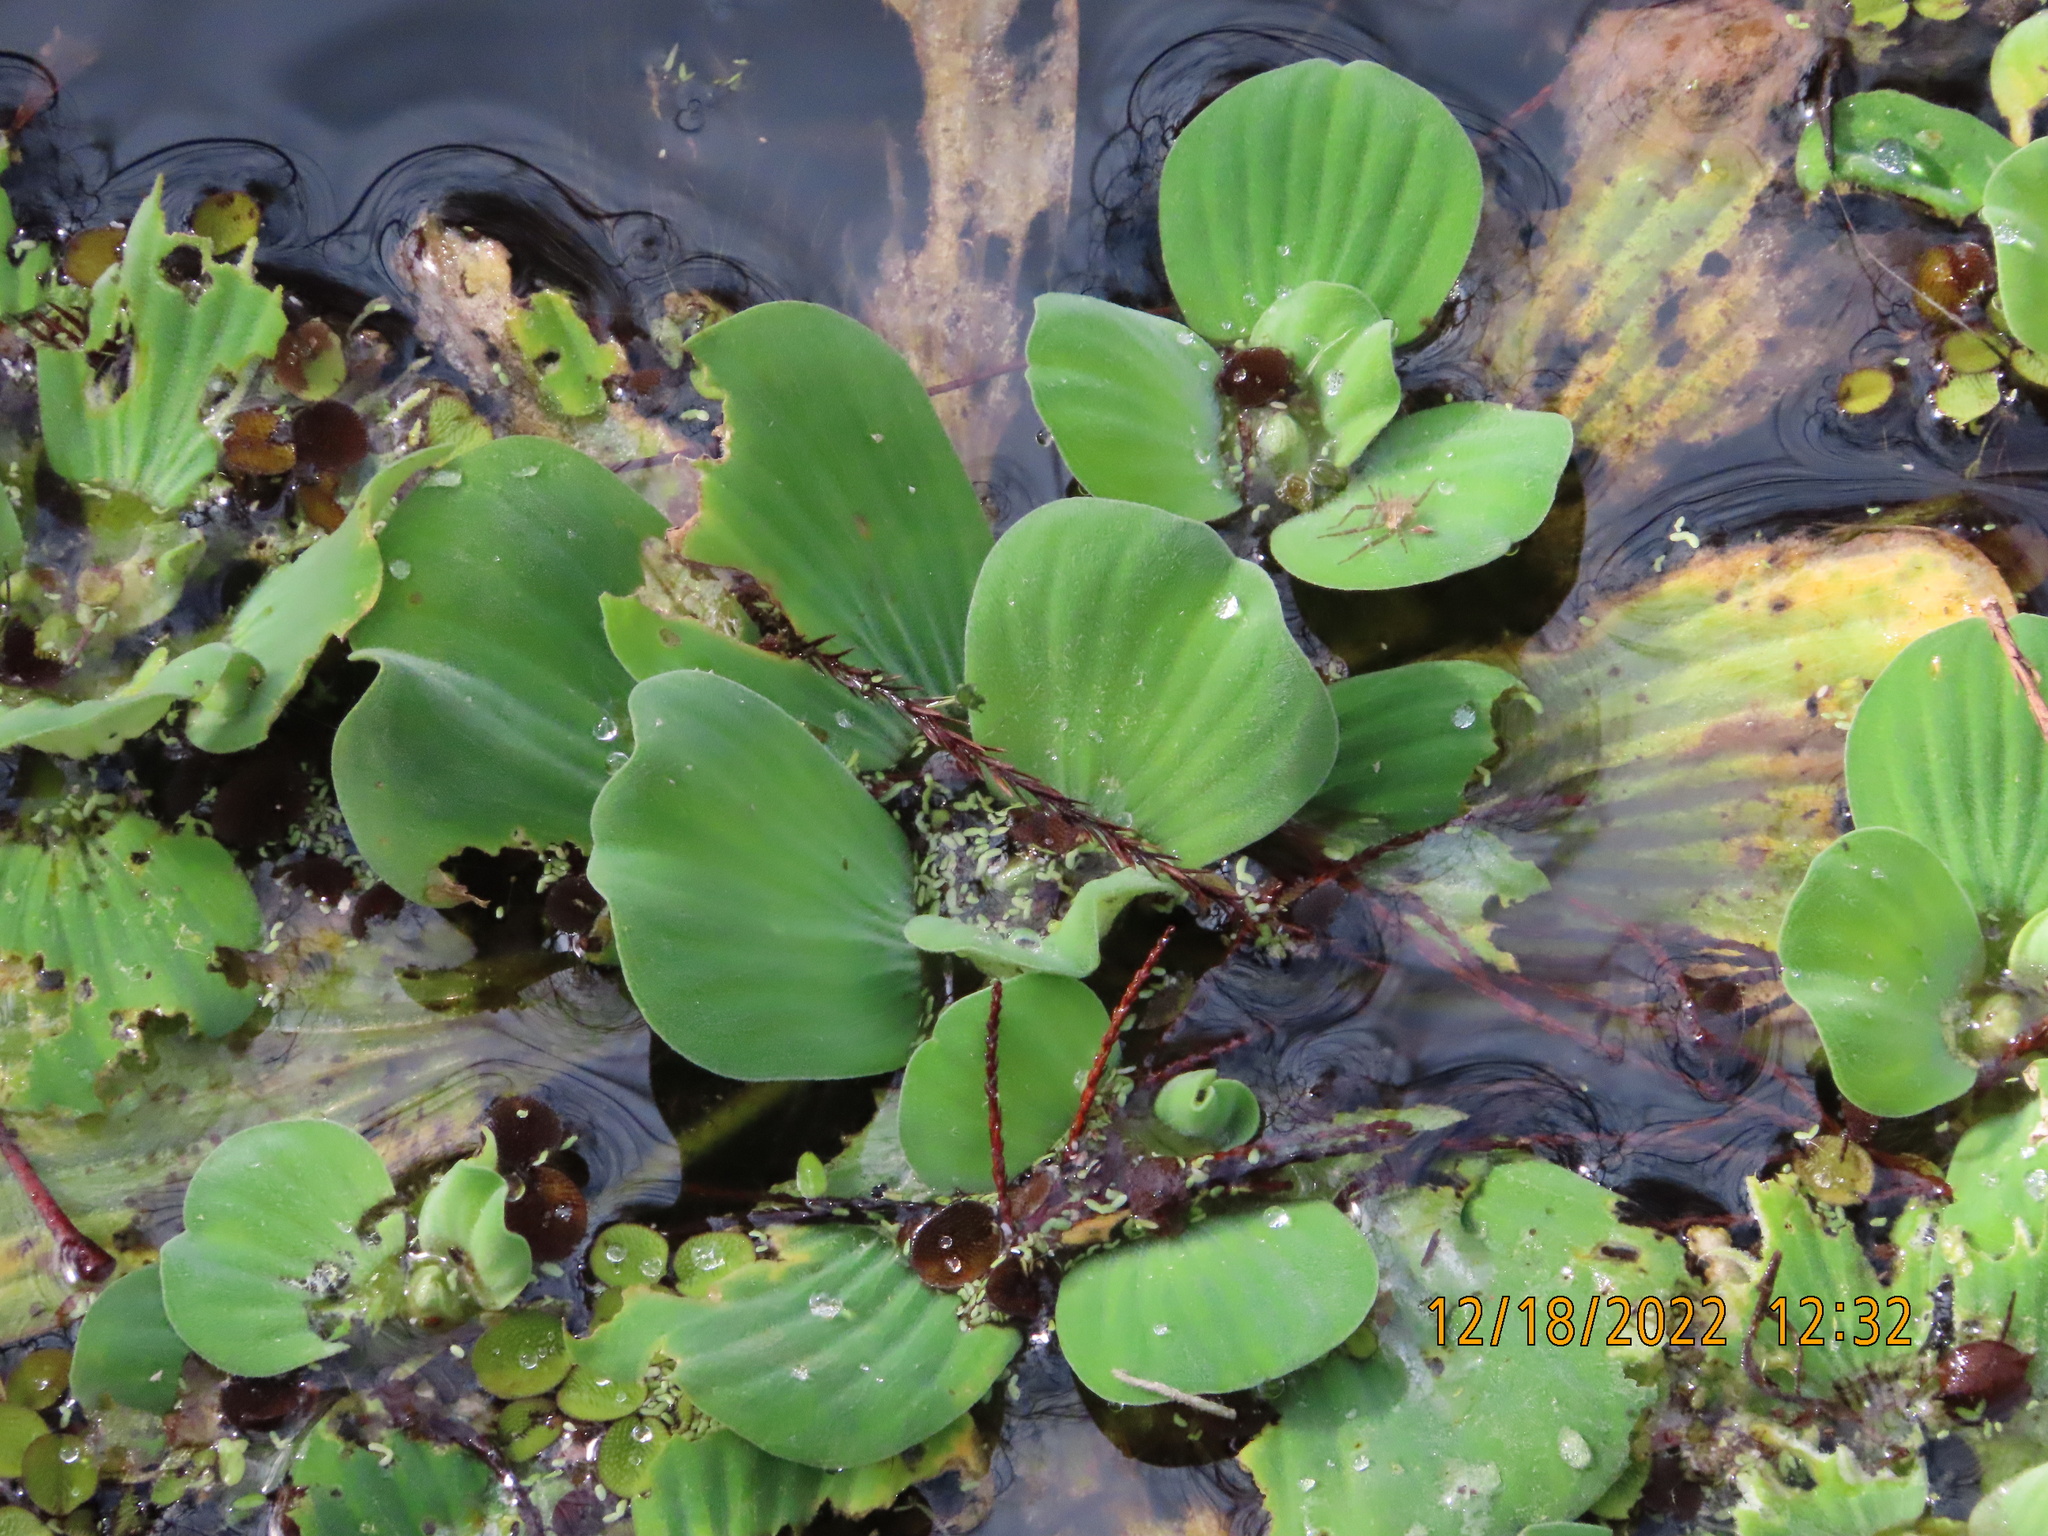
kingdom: Plantae
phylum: Tracheophyta
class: Liliopsida
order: Alismatales
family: Araceae
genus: Pistia
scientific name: Pistia stratiotes
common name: Water lettuce
